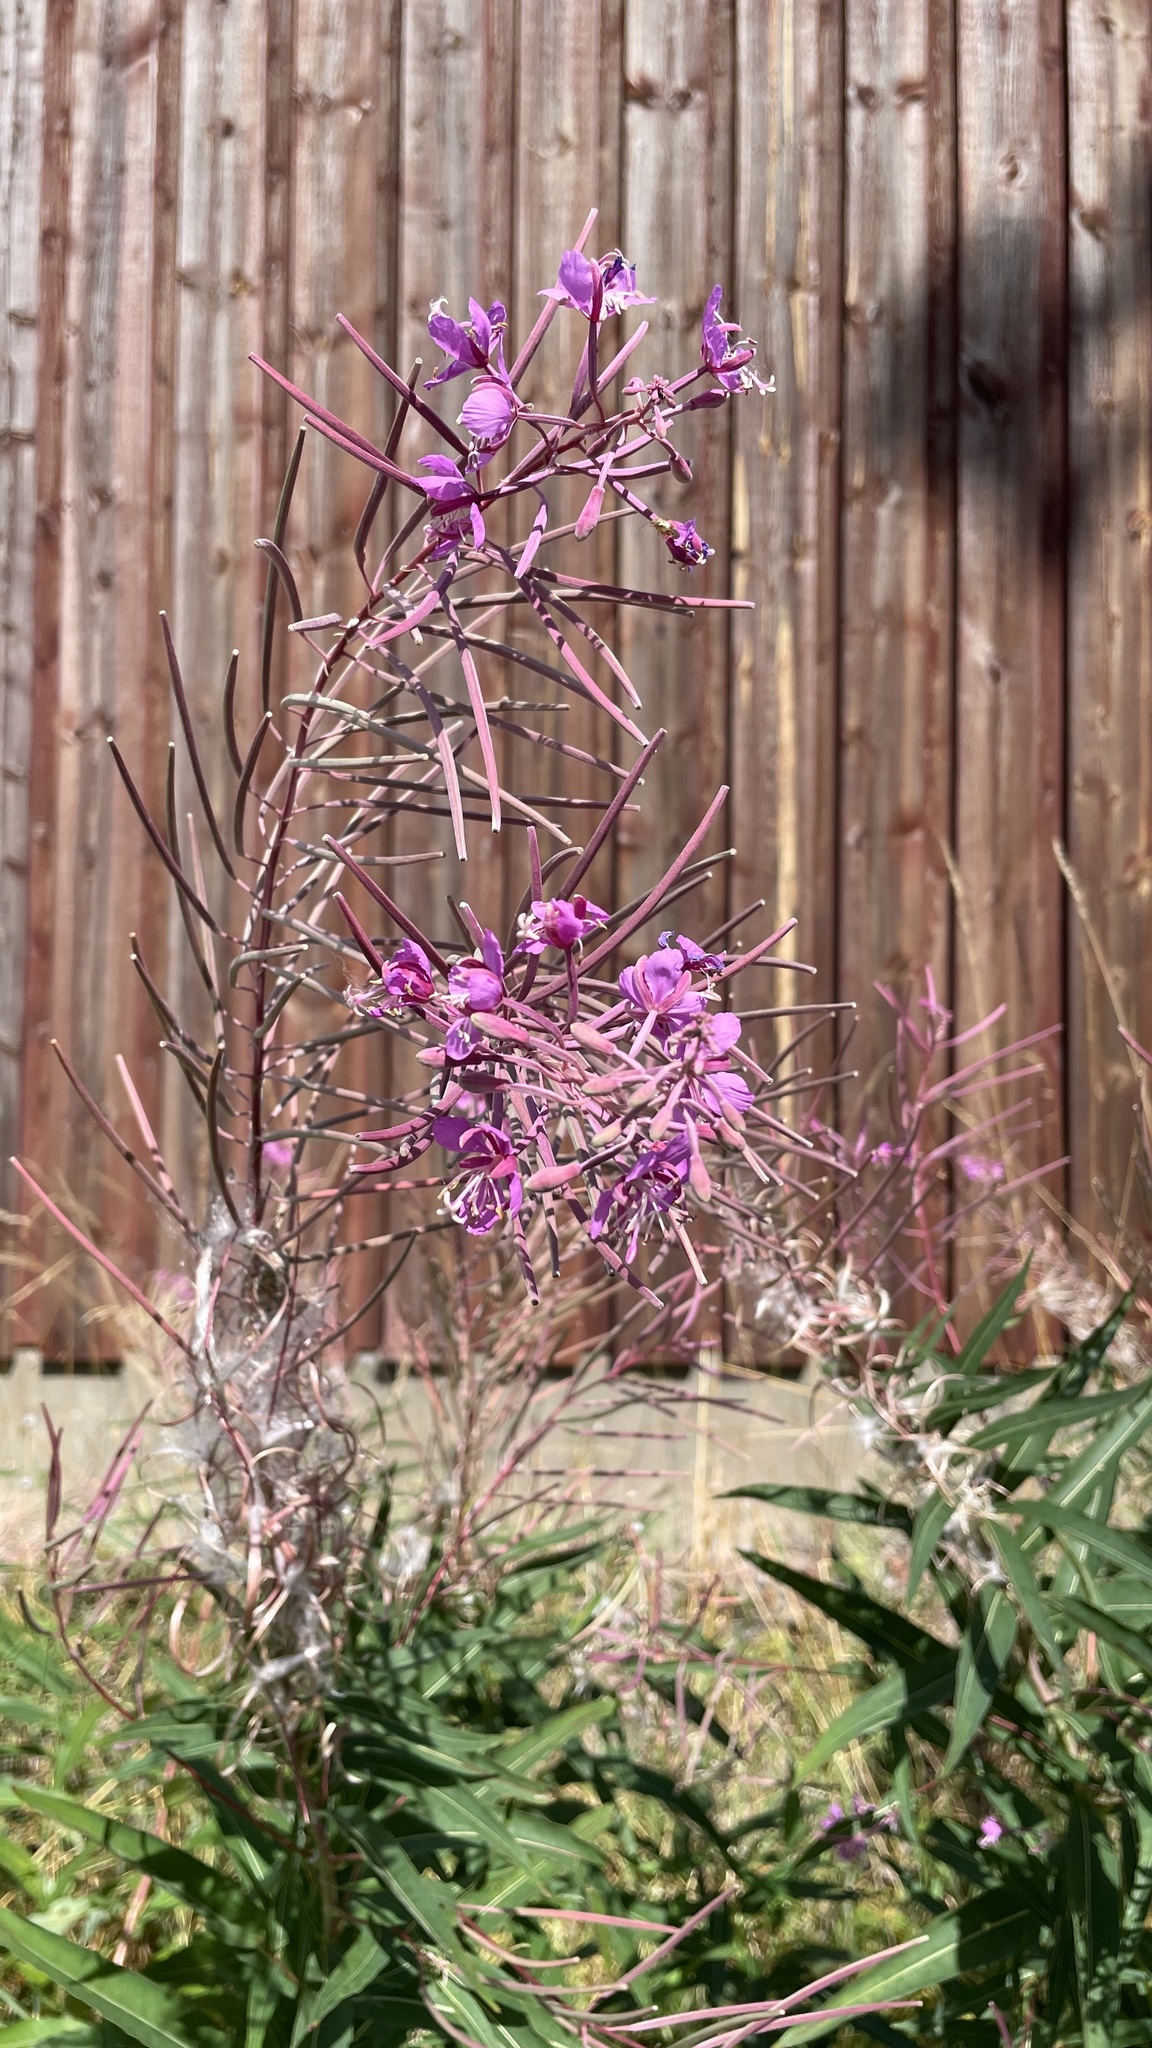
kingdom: Plantae
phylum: Tracheophyta
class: Magnoliopsida
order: Myrtales
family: Onagraceae
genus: Chamaenerion
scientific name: Chamaenerion angustifolium
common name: Fireweed
